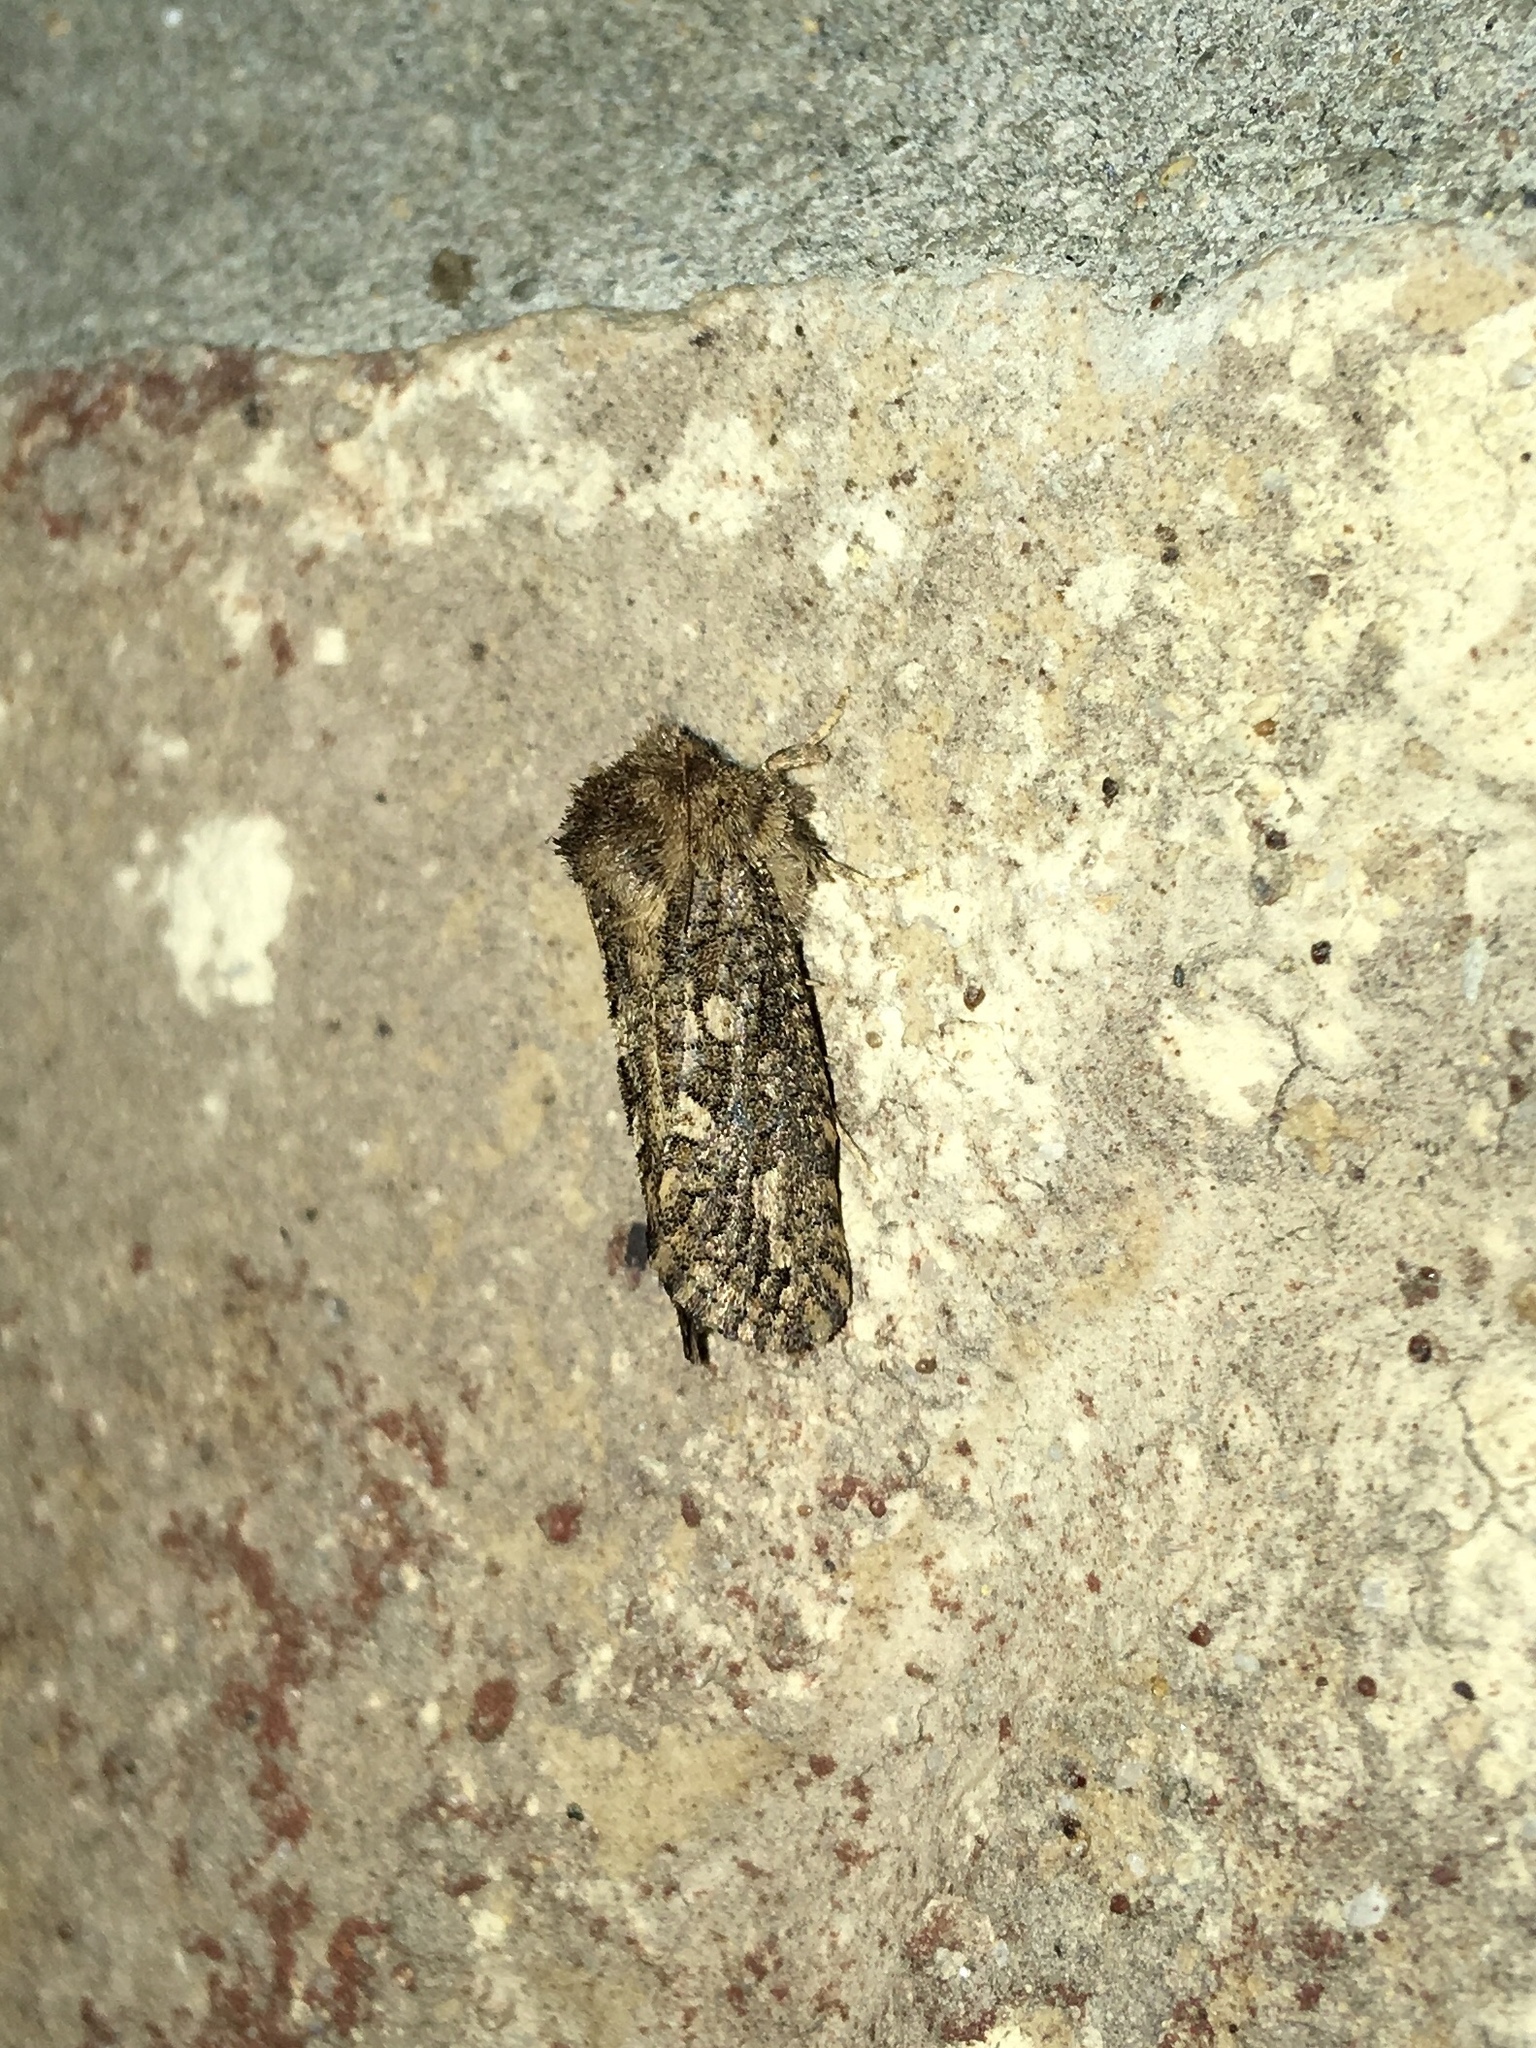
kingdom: Animalia
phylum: Arthropoda
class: Insecta
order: Lepidoptera
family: Tineidae
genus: Acrolophus
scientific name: Acrolophus arcanella
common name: Arcane grass tubeworm moth
